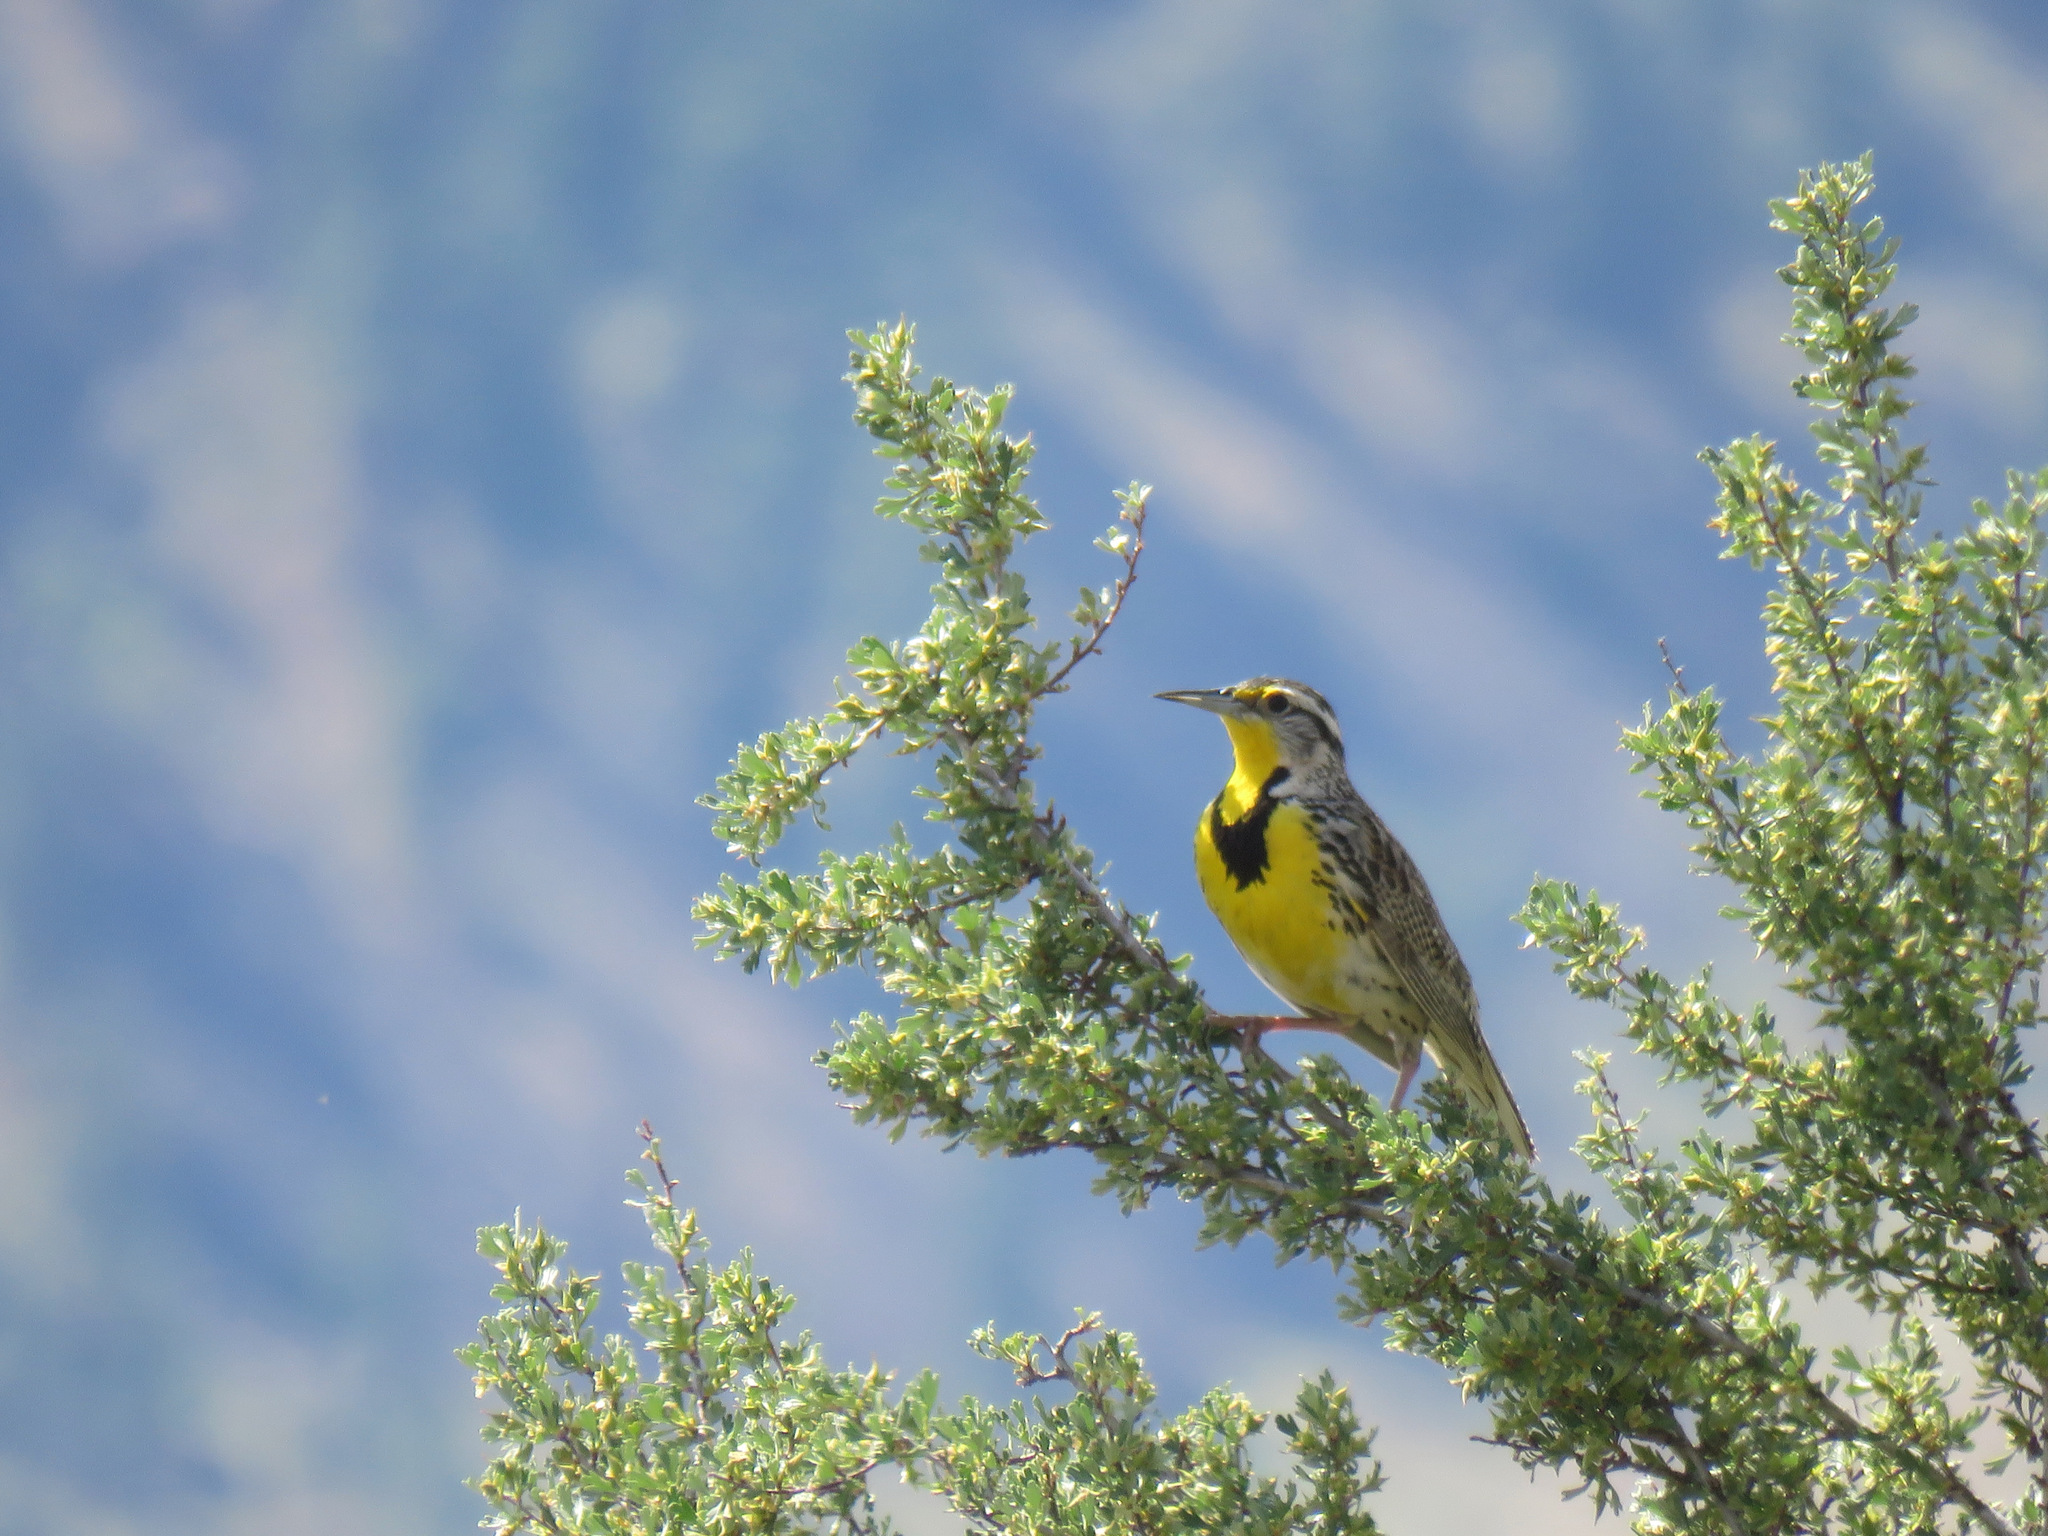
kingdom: Animalia
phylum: Chordata
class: Aves
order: Passeriformes
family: Icteridae
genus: Sturnella
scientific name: Sturnella neglecta
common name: Western meadowlark
